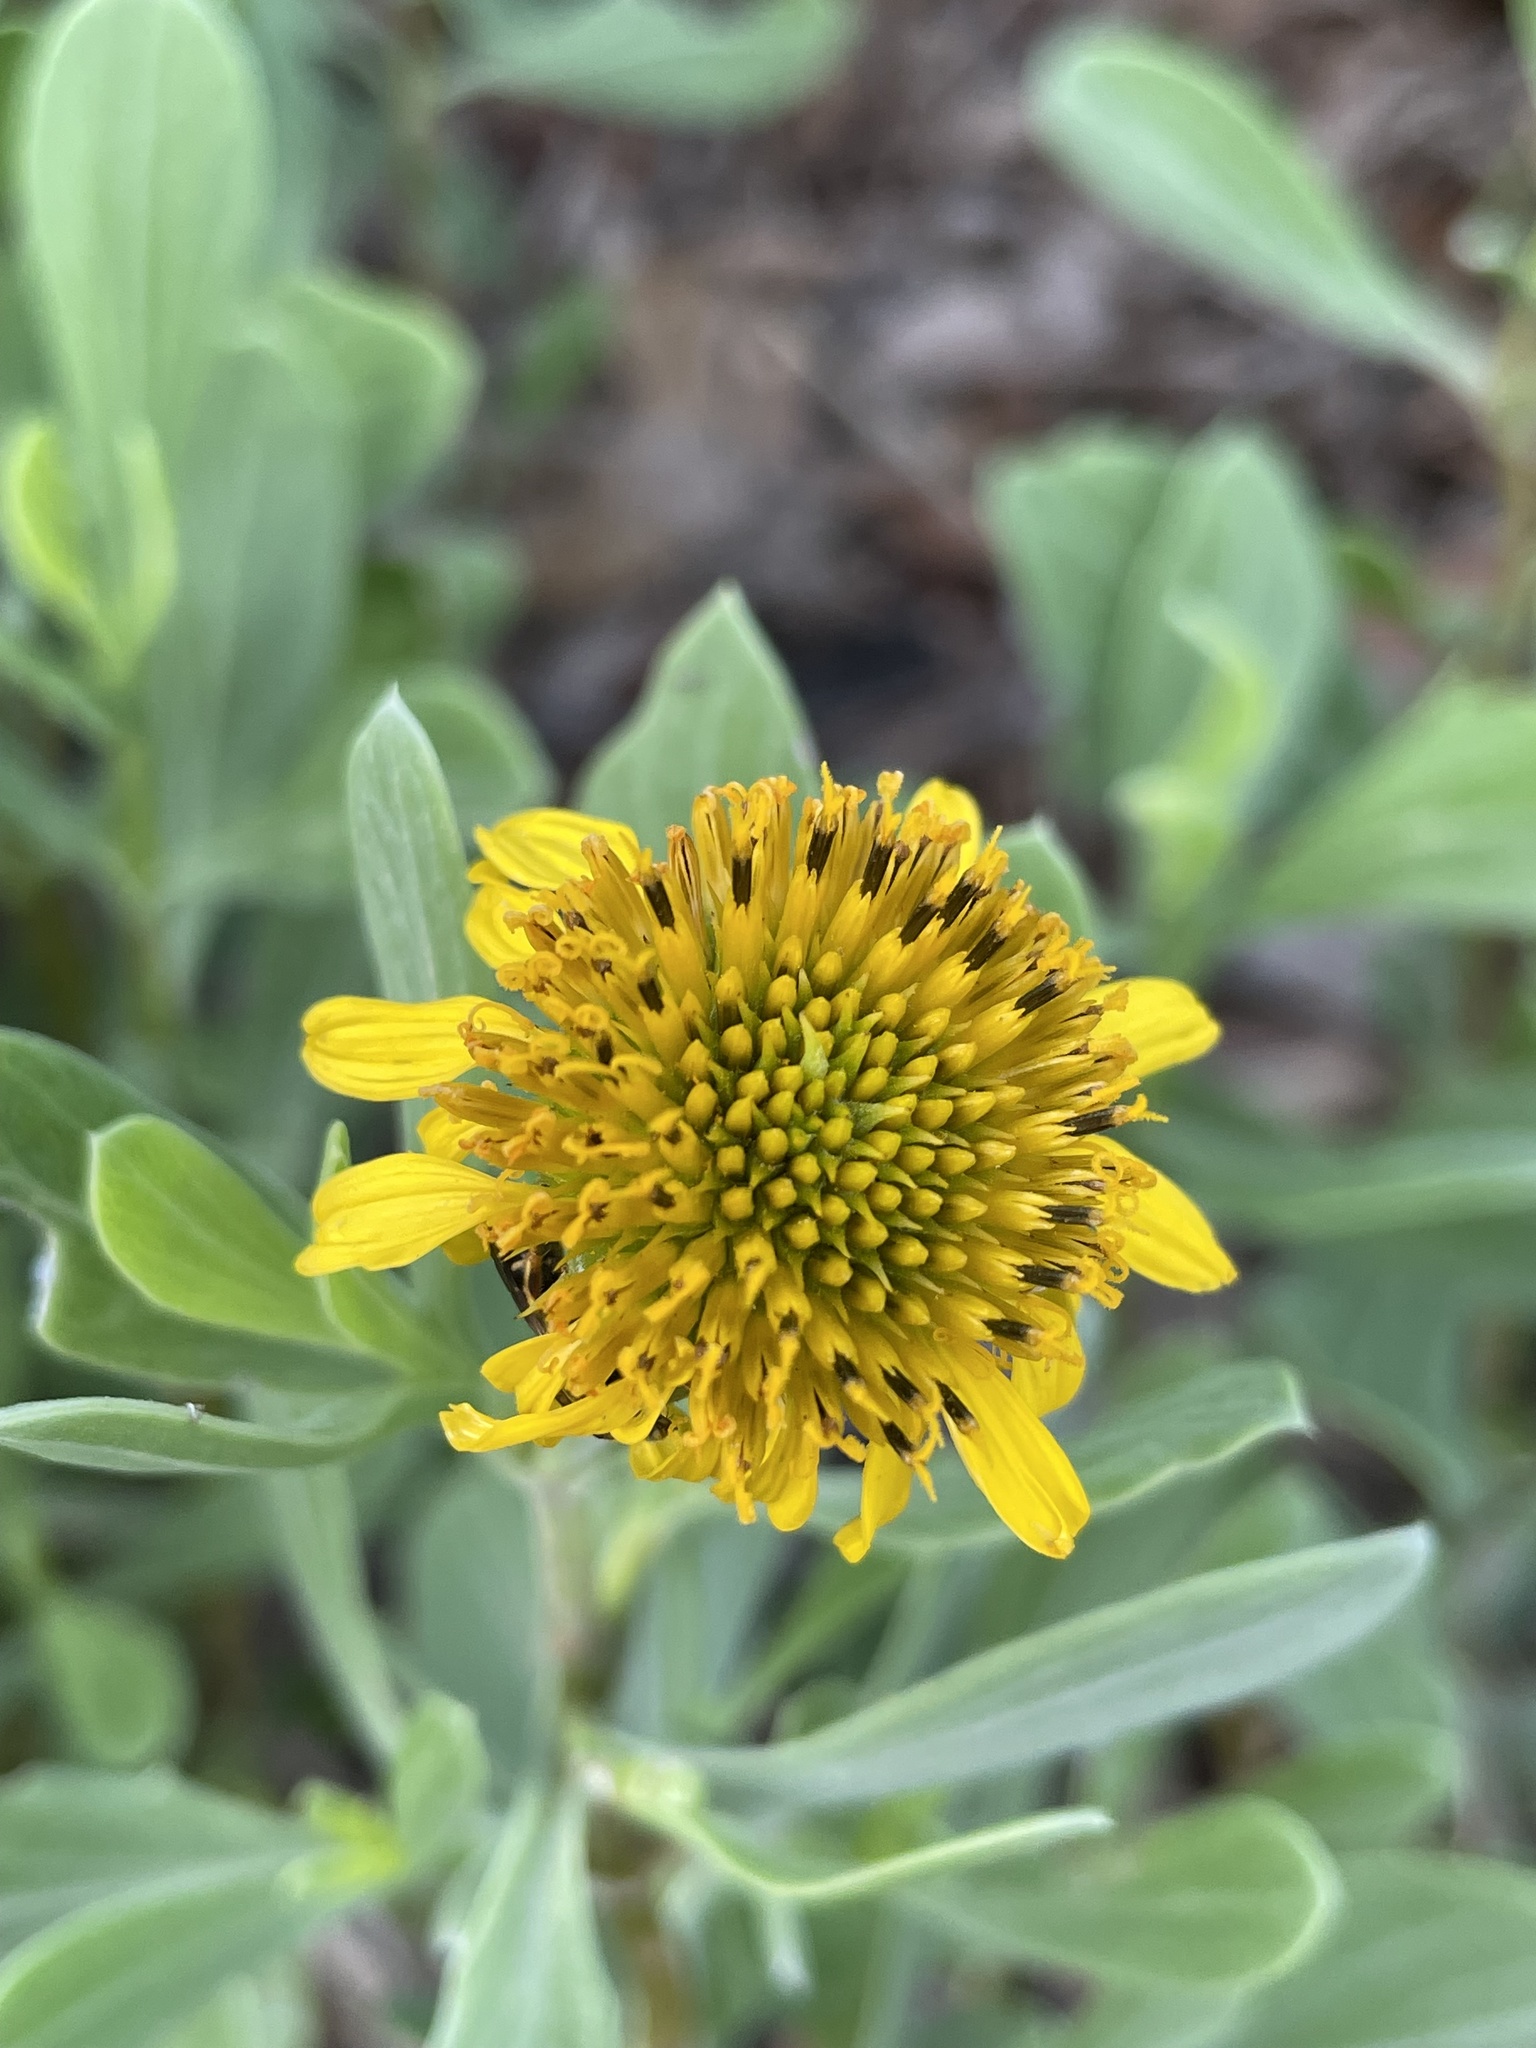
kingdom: Plantae
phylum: Tracheophyta
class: Magnoliopsida
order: Asterales
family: Asteraceae
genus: Borrichia
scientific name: Borrichia frutescens
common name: Sea oxeye
